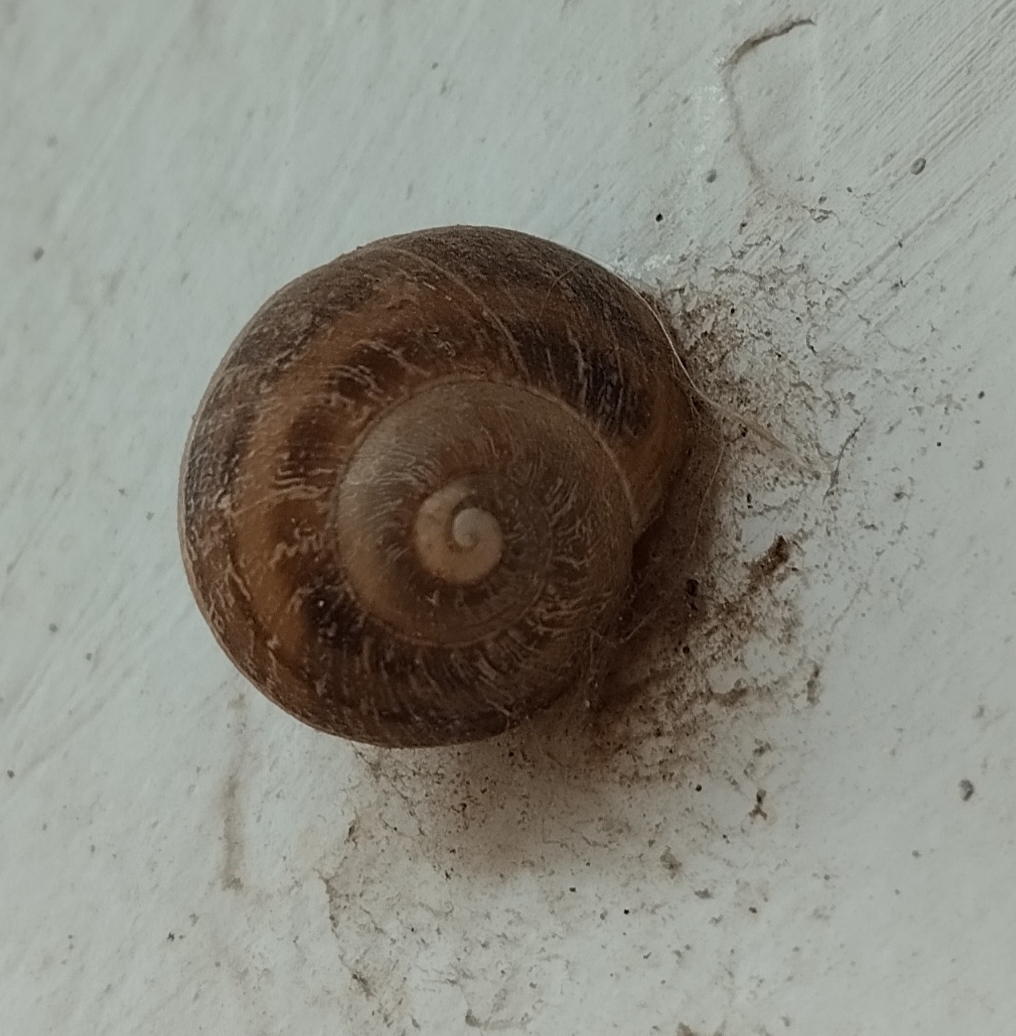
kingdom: Animalia
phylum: Mollusca
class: Gastropoda
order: Stylommatophora
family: Helicidae
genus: Cornu
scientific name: Cornu aspersum
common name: Brown garden snail
